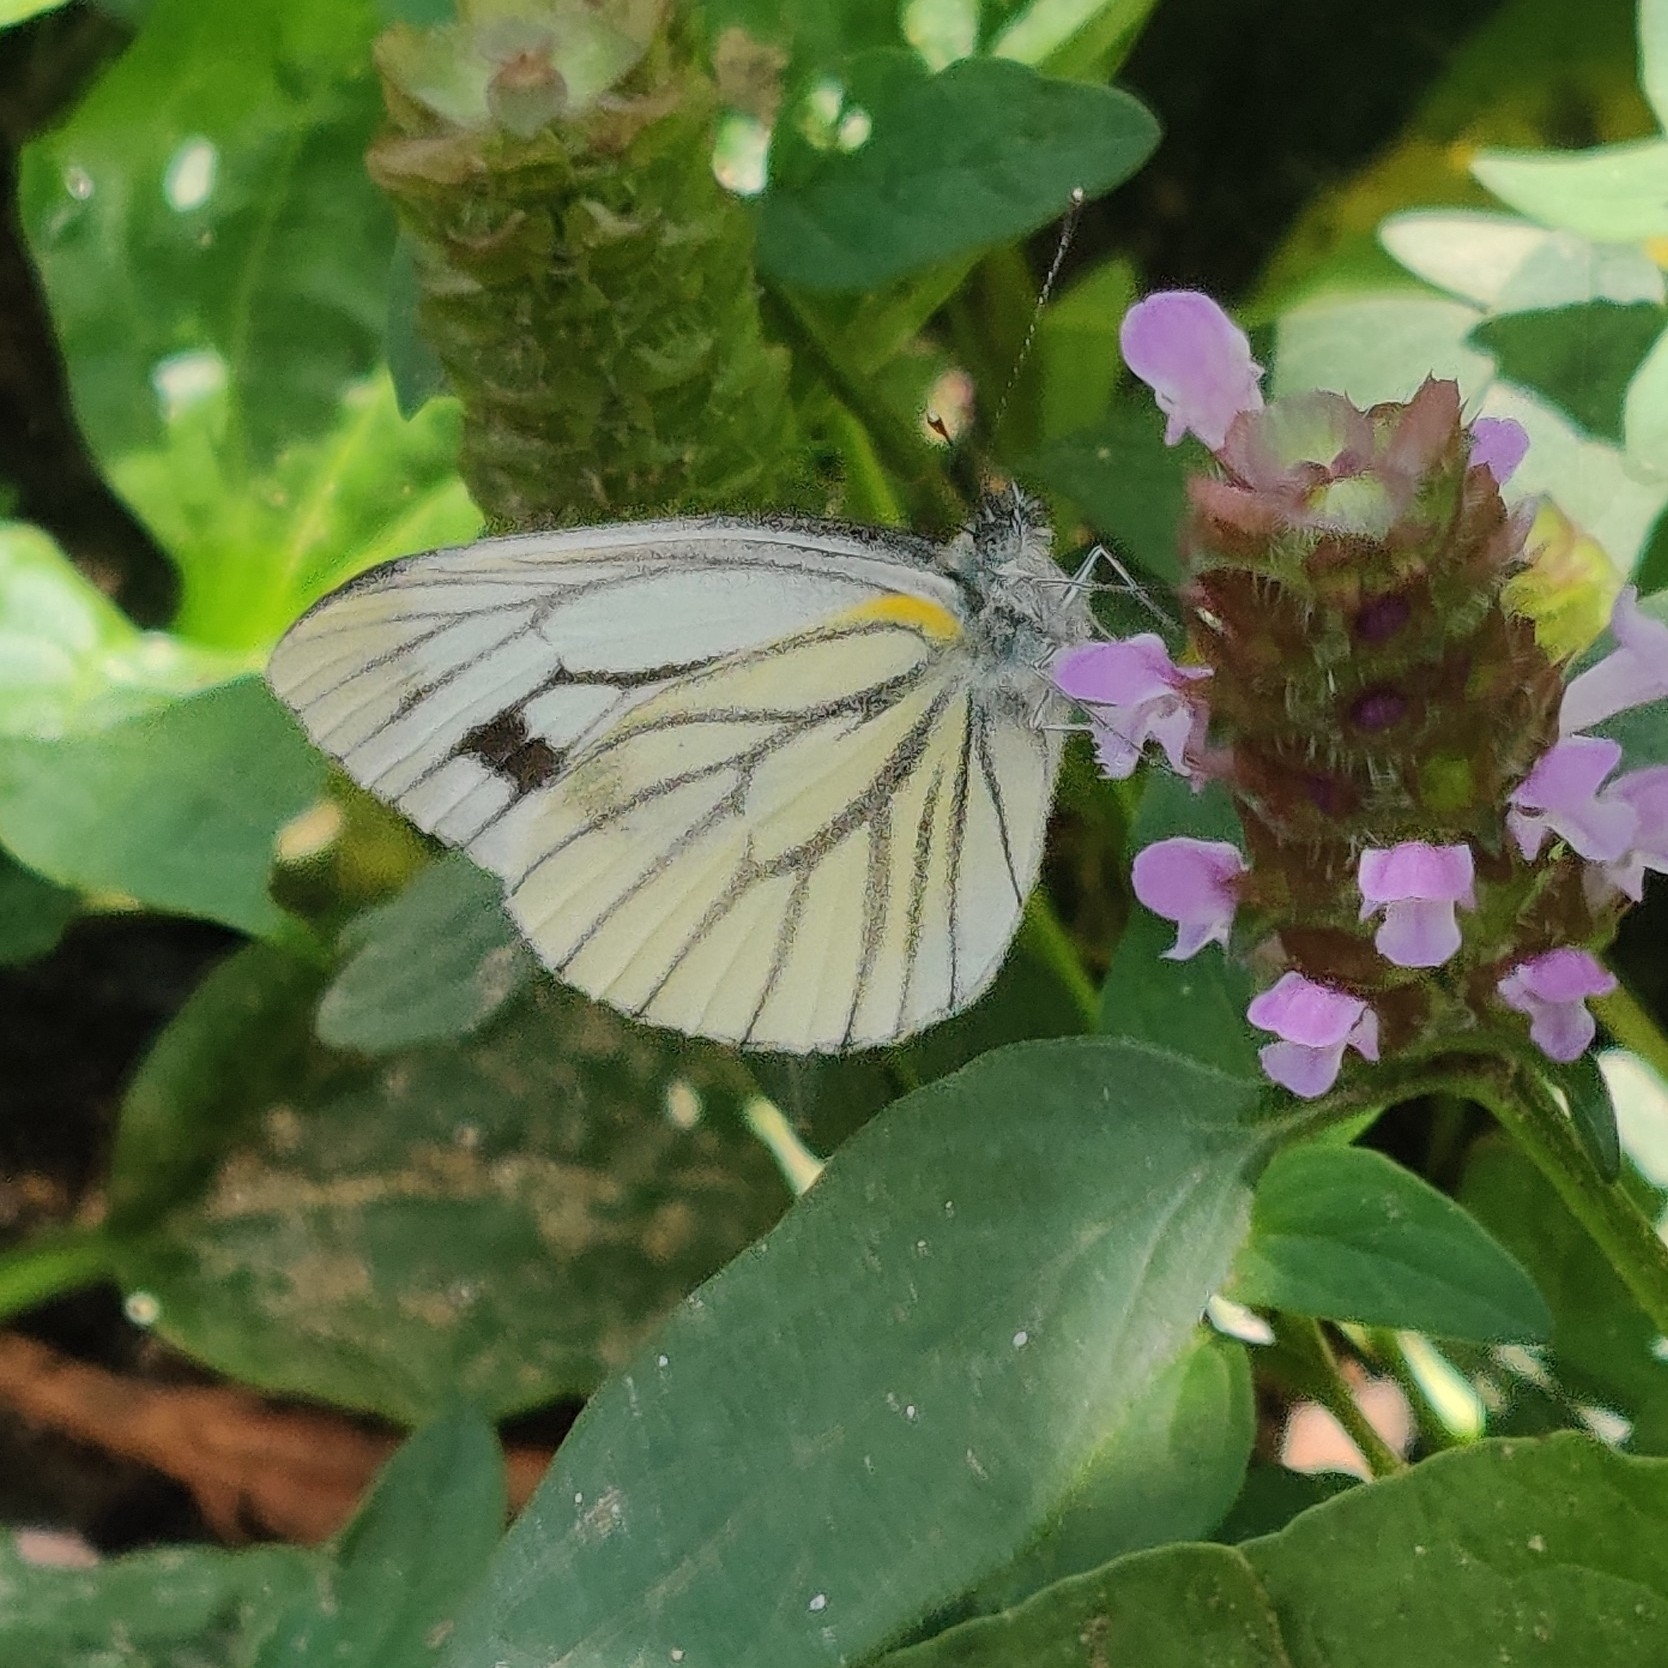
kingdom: Animalia
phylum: Arthropoda
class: Insecta
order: Lepidoptera
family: Pieridae
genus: Pieris
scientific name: Pieris melete
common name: Asian green-veined white
